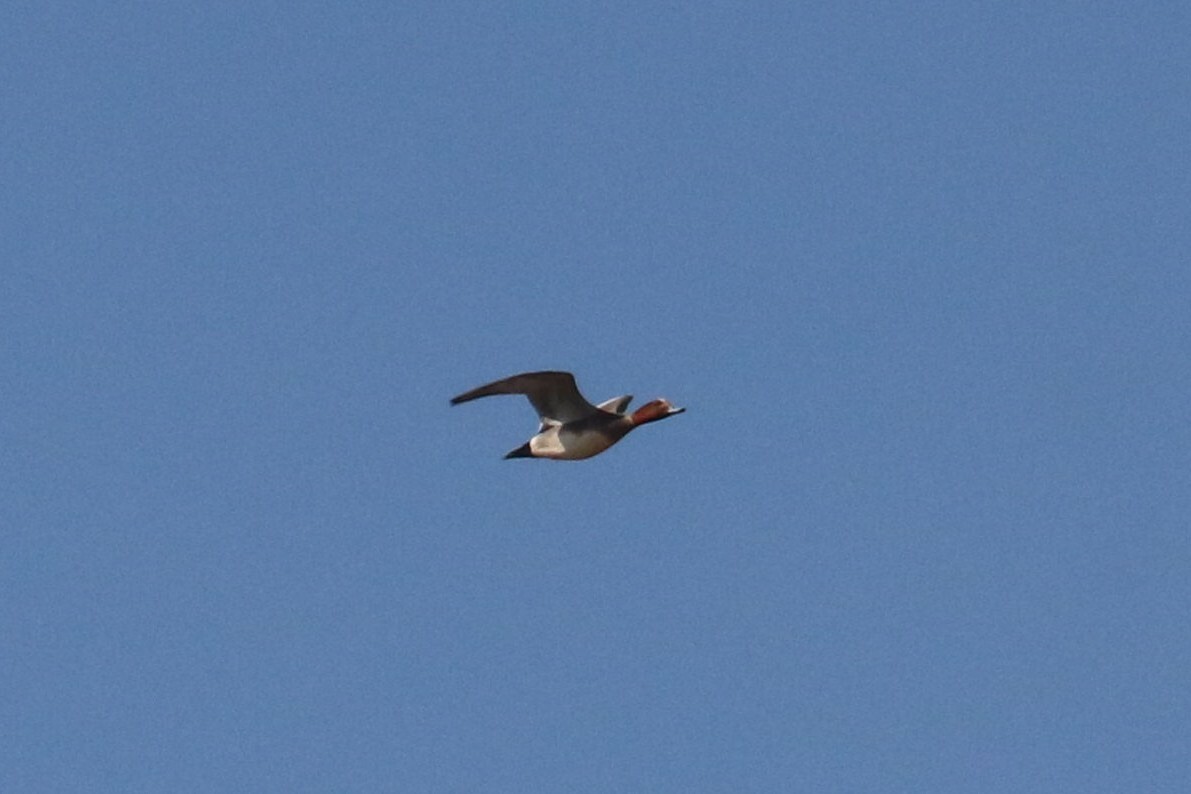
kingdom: Animalia
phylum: Chordata
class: Aves
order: Anseriformes
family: Anatidae
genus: Mareca
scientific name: Mareca penelope
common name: Eurasian wigeon
